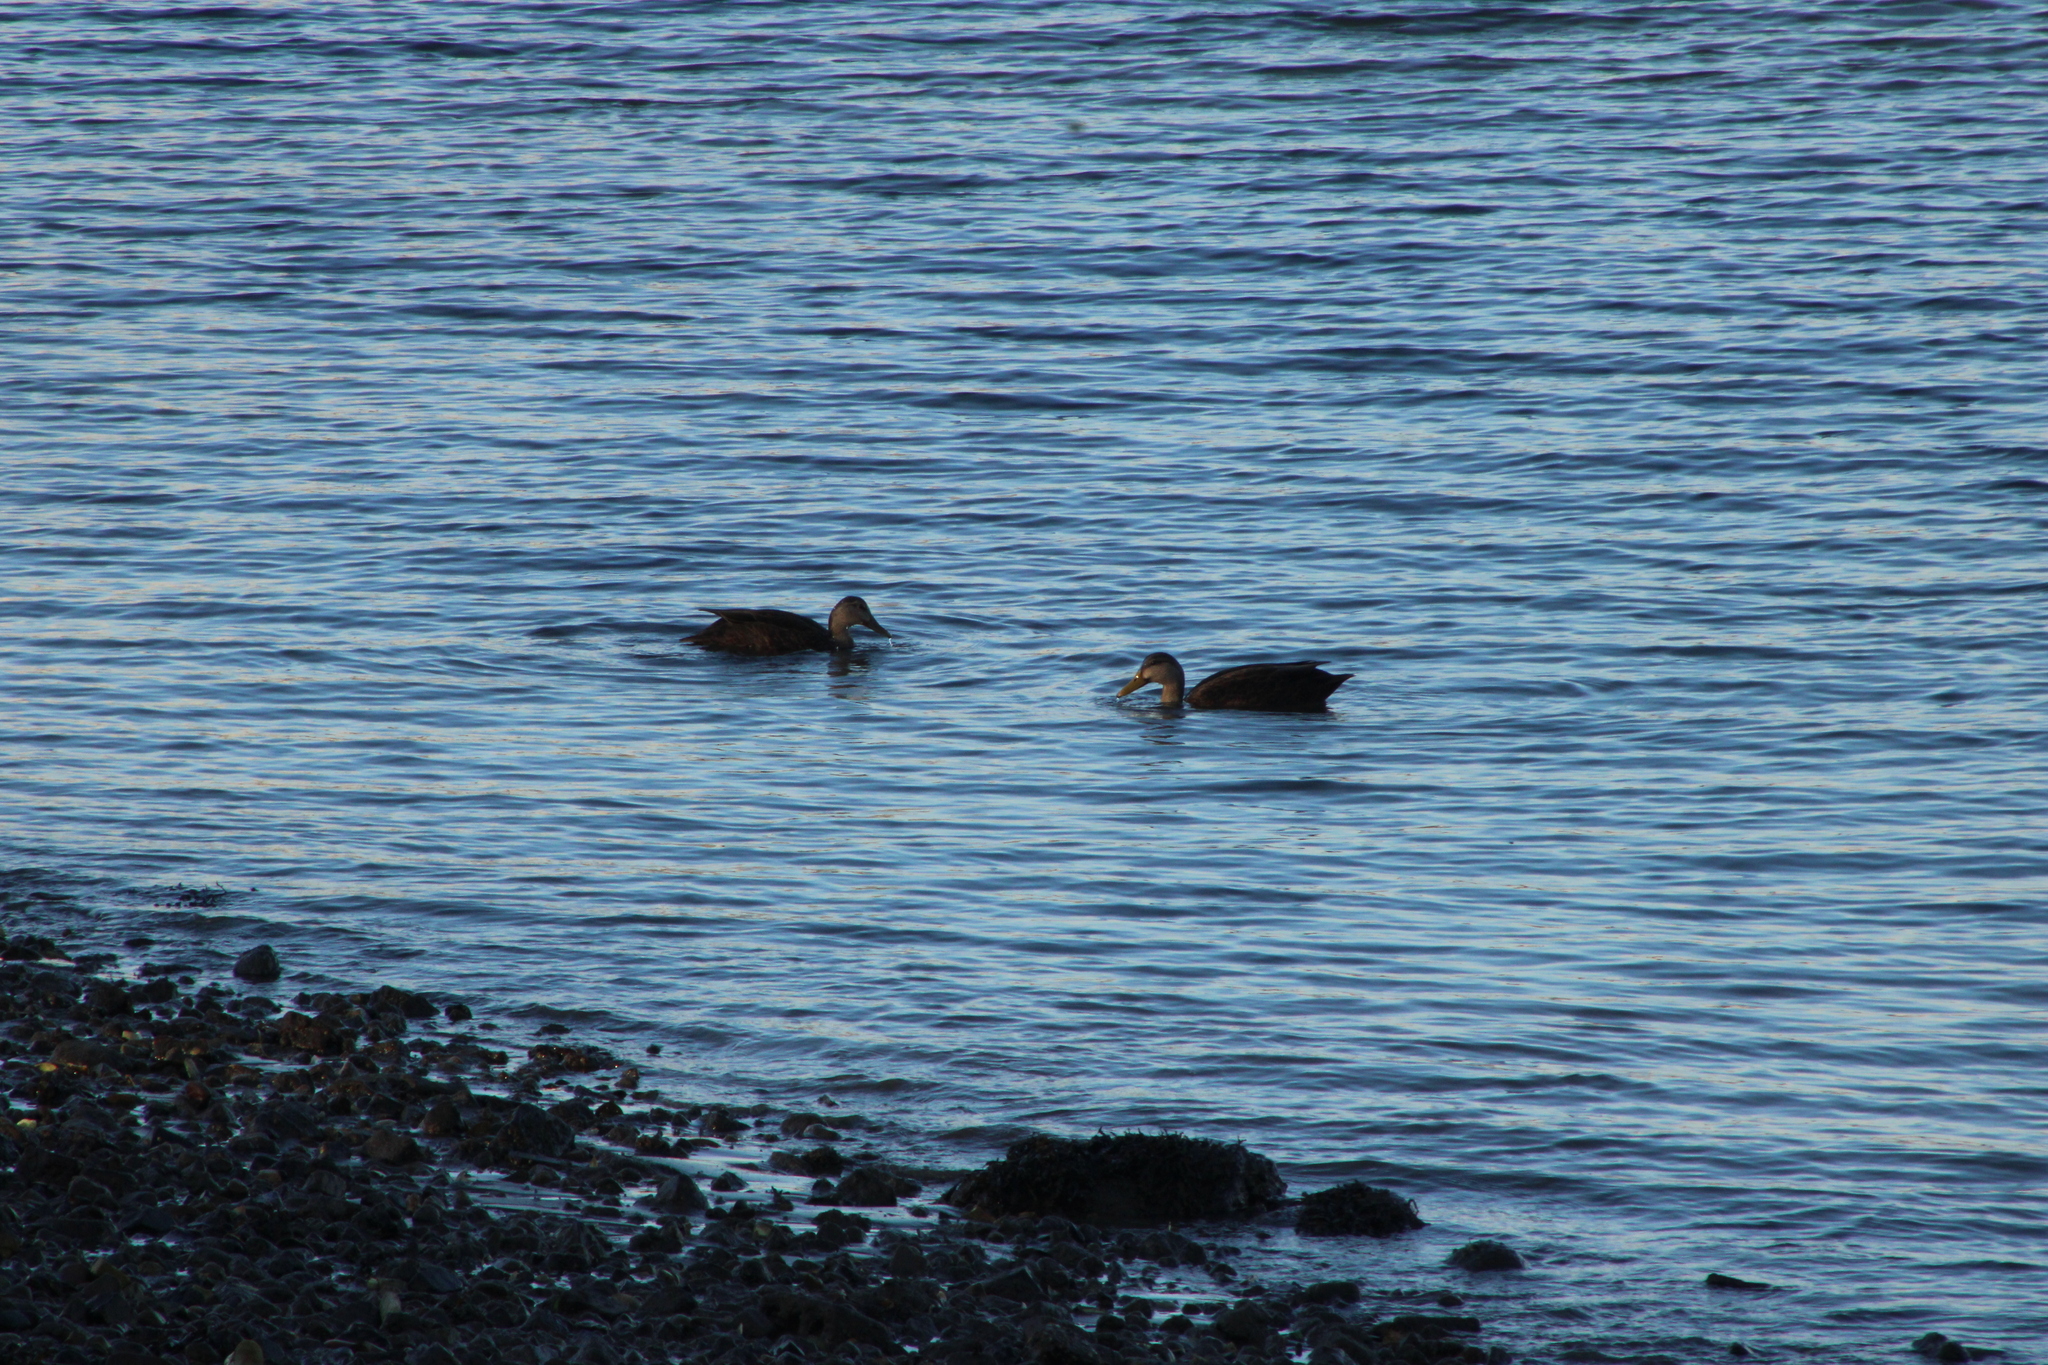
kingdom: Animalia
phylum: Chordata
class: Aves
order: Anseriformes
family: Anatidae
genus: Anas
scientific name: Anas rubripes
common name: American black duck
